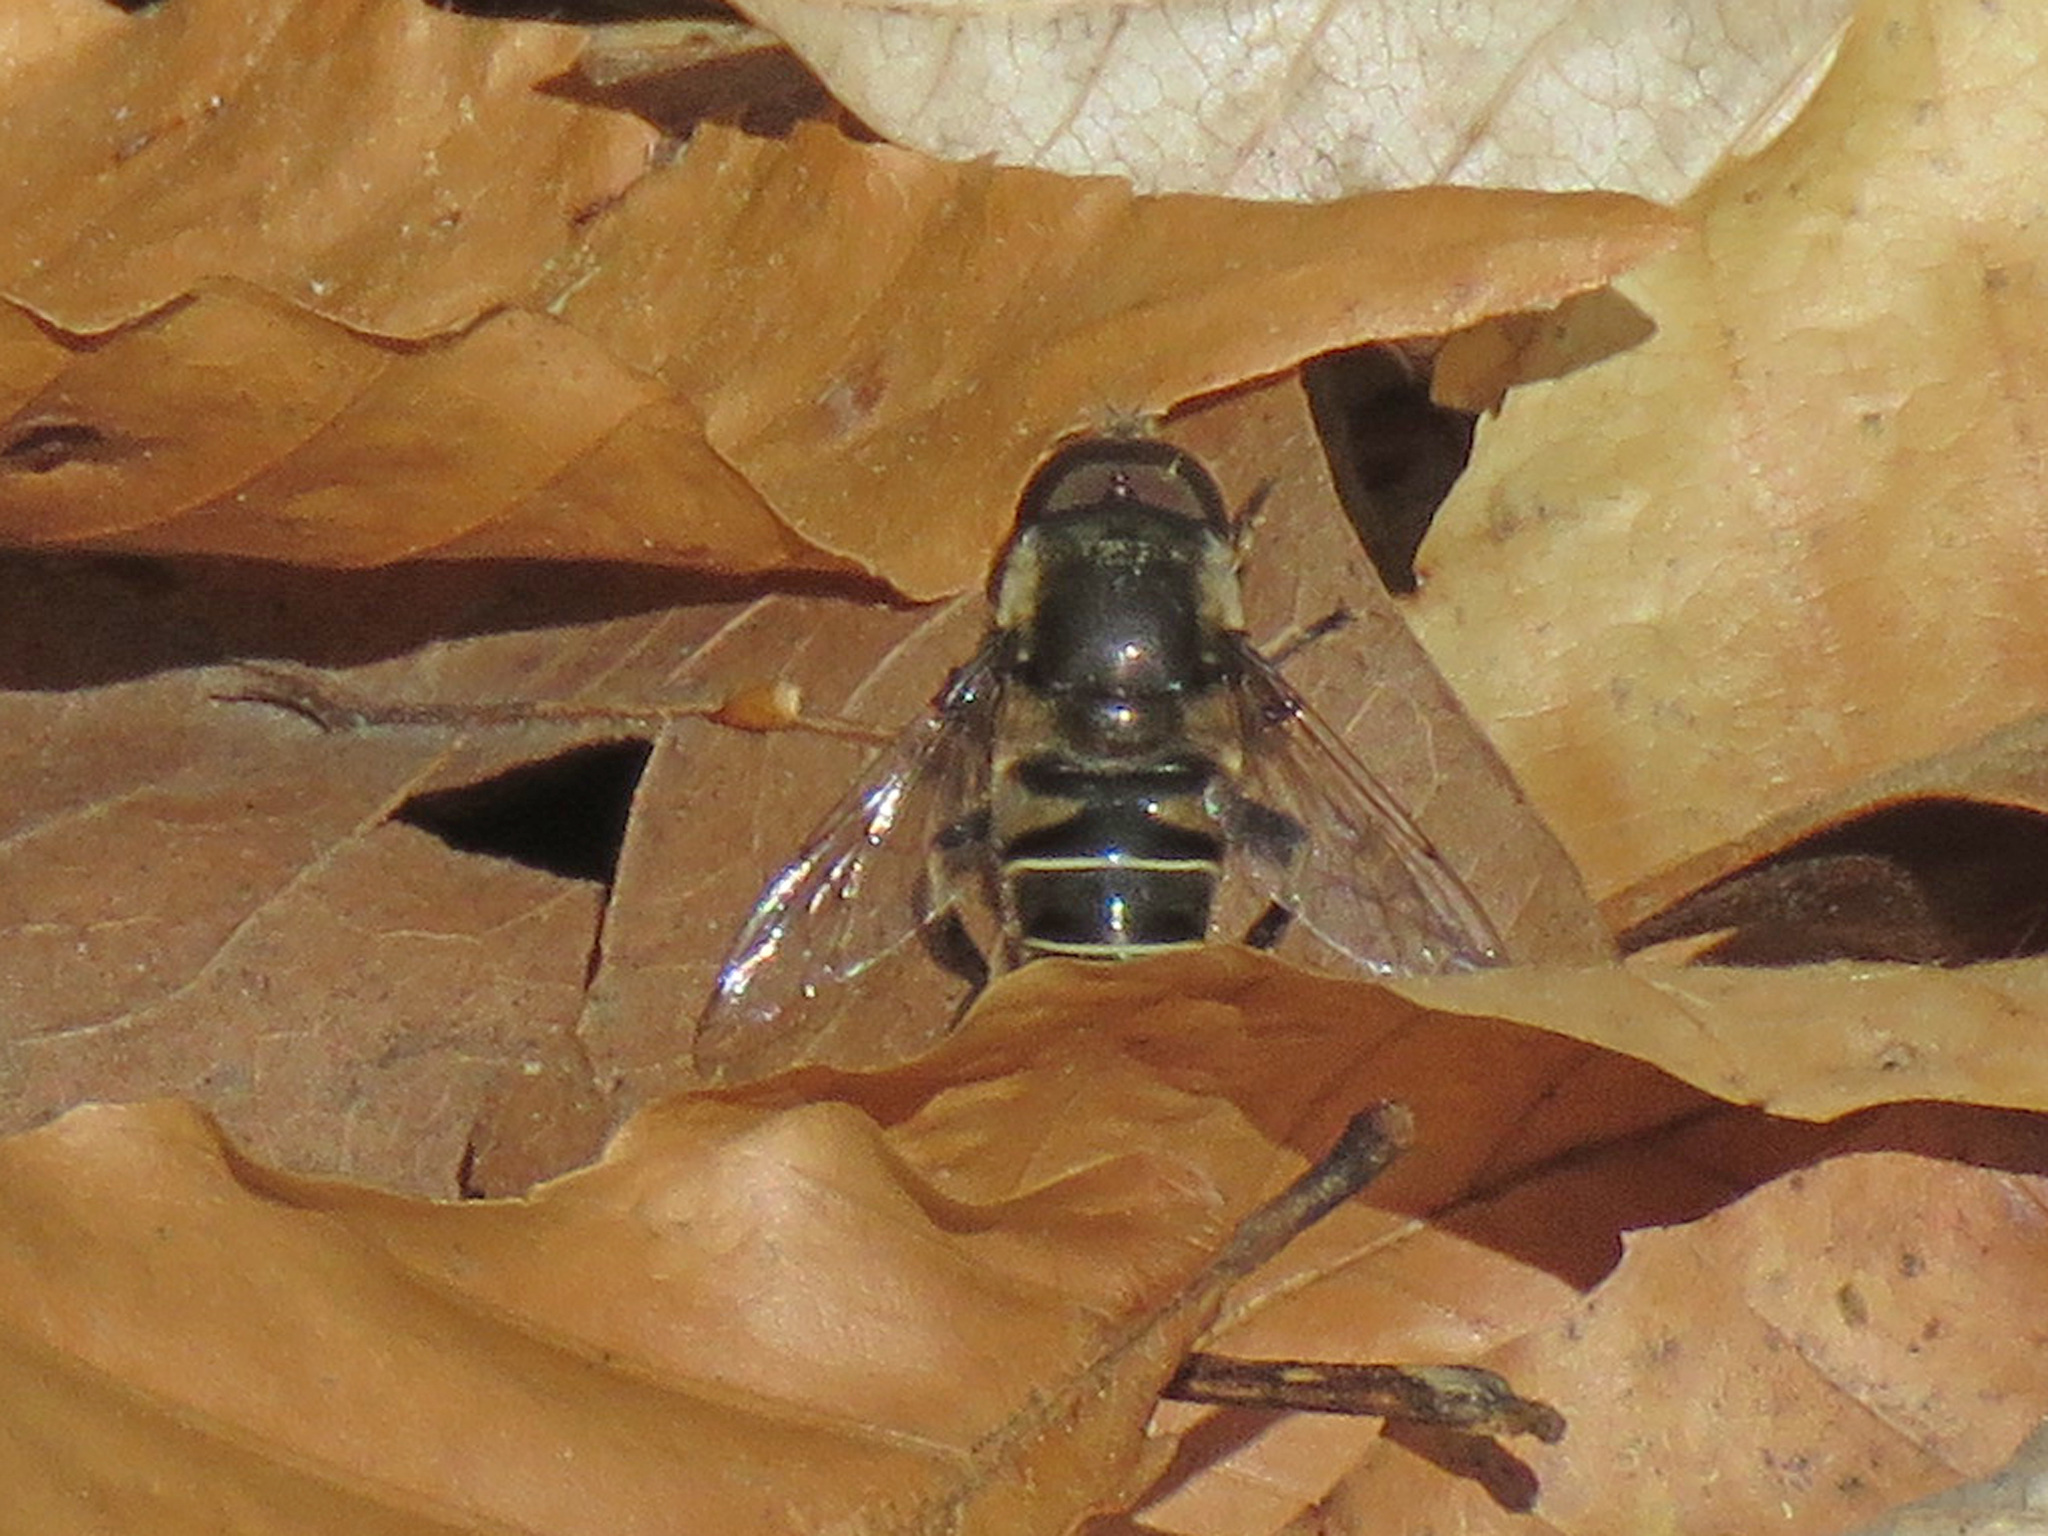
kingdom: Animalia
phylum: Arthropoda
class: Insecta
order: Diptera
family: Syrphidae
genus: Eristalis
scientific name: Eristalis dimidiata
